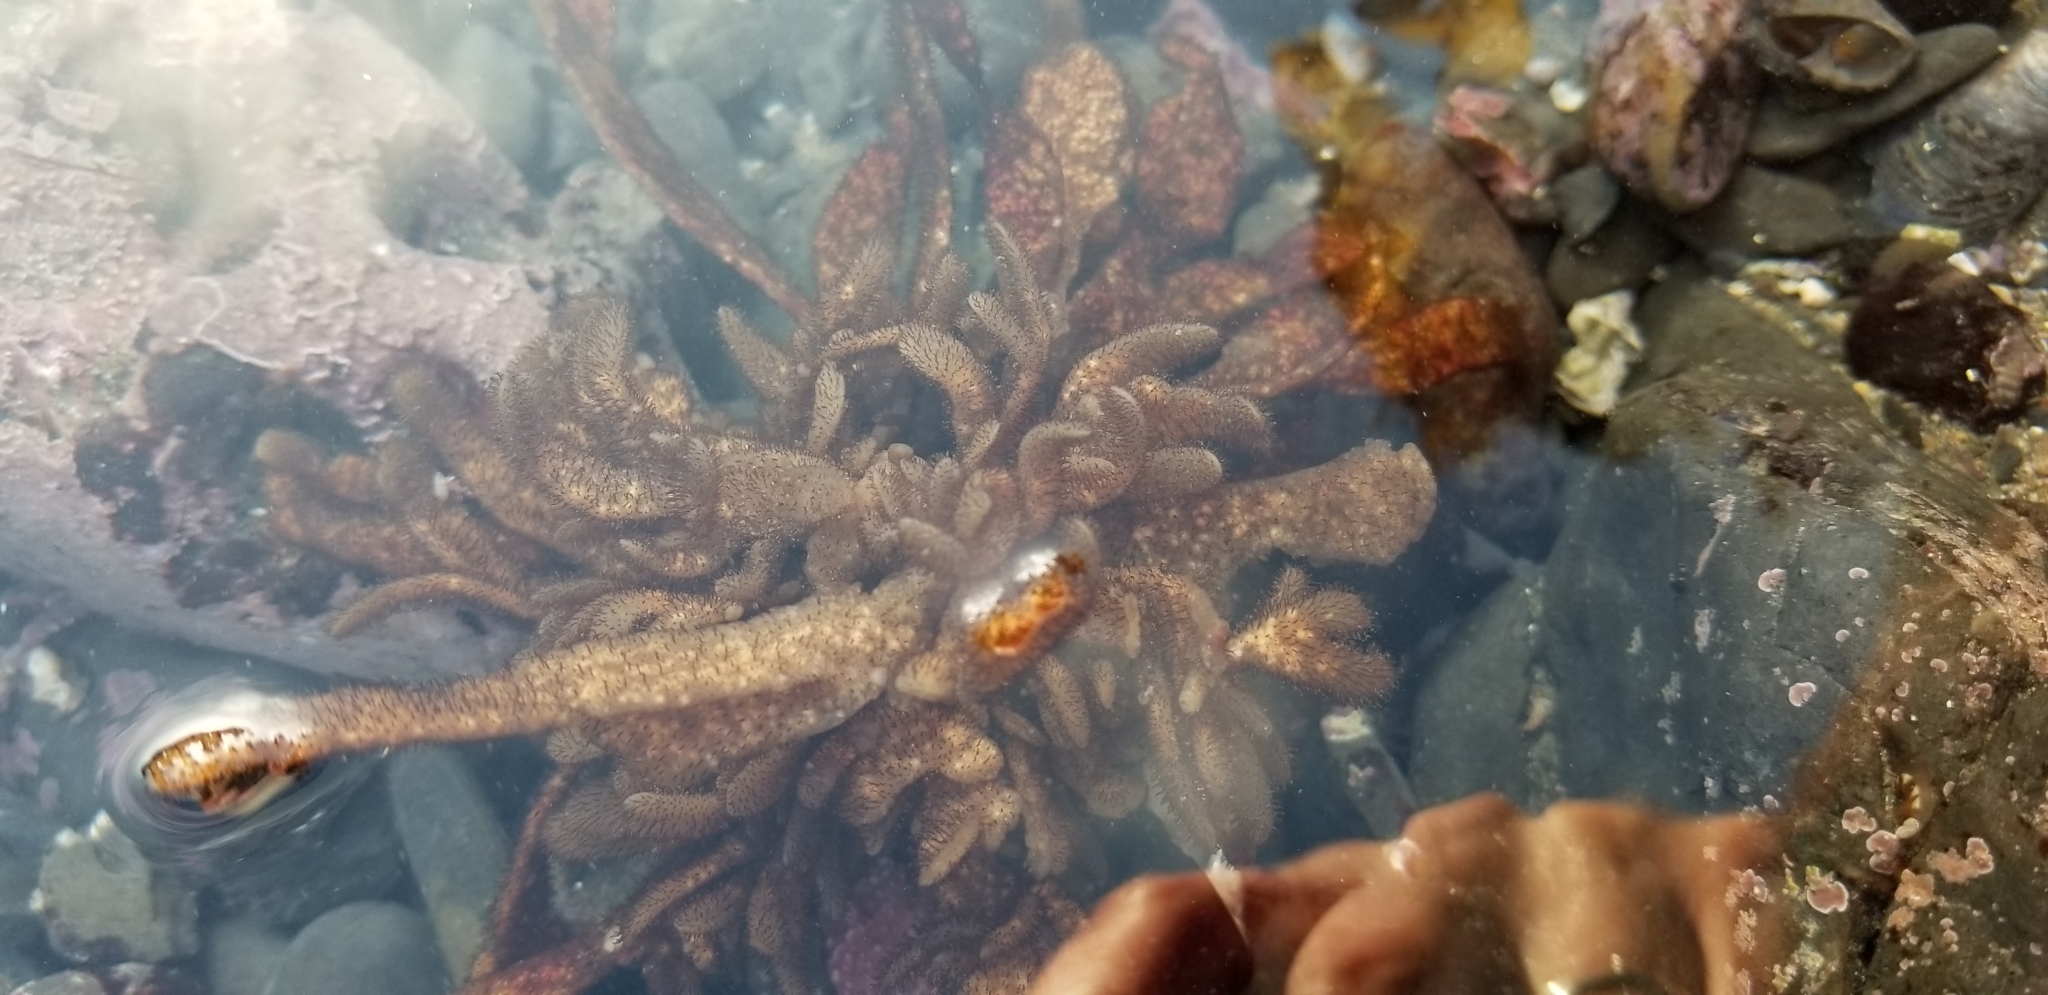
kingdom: Animalia
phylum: Bryozoa
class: Gymnolaemata
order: Ctenostomatida
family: Flustrellidridae
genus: Flustrellidra
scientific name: Flustrellidra spinifera
